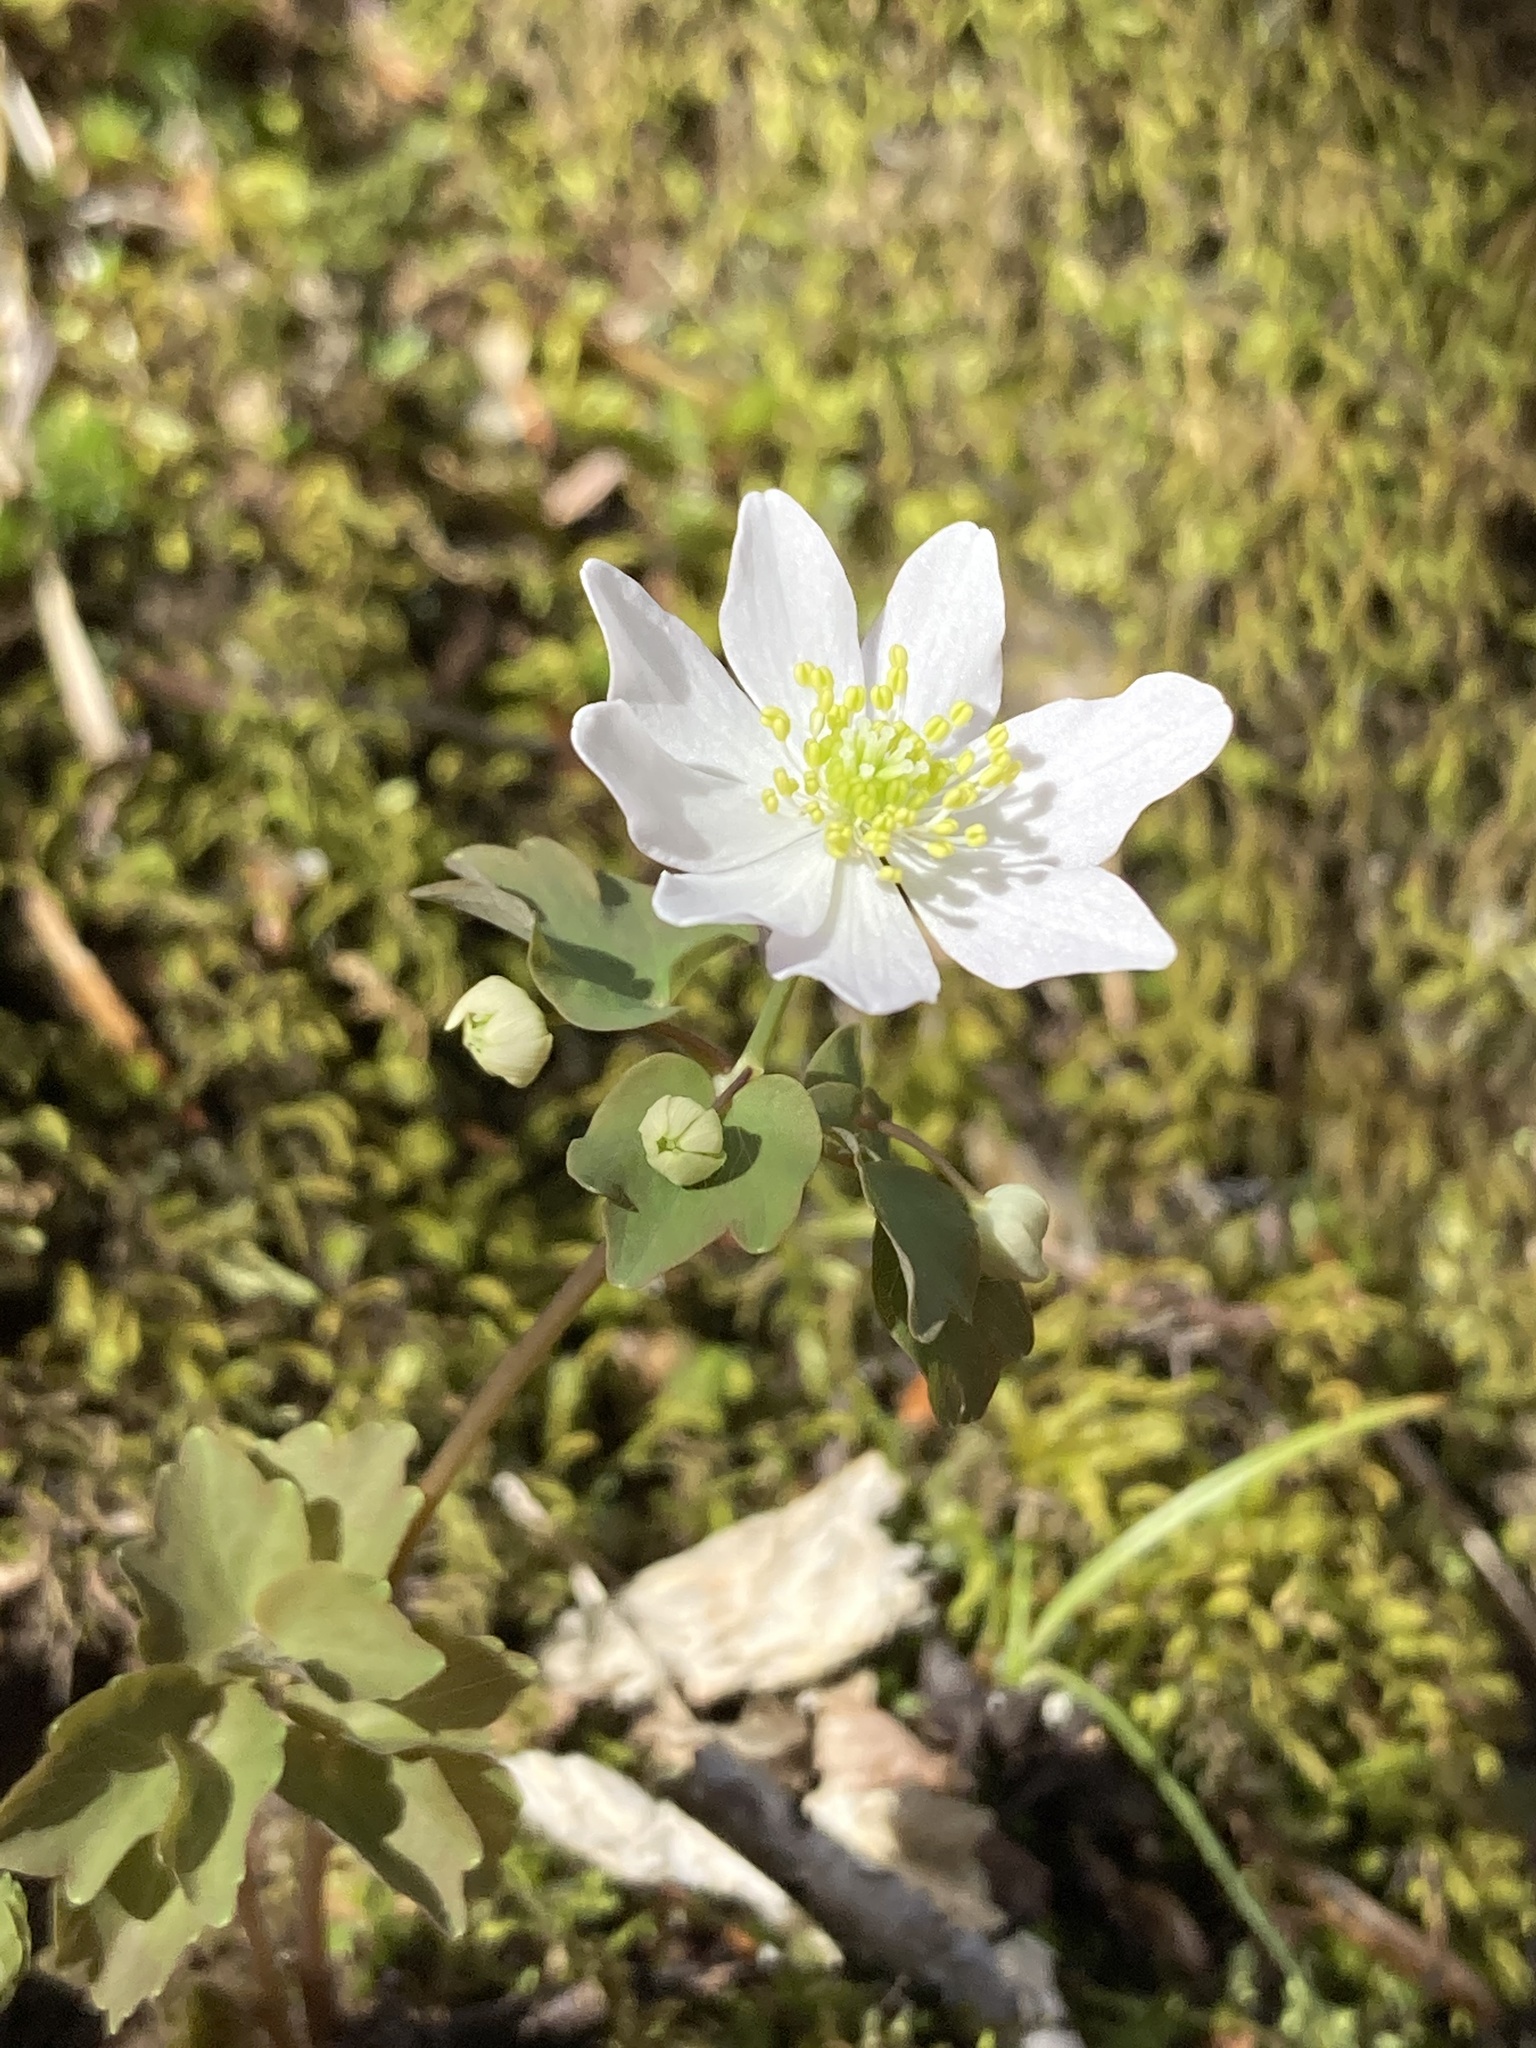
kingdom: Plantae
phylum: Tracheophyta
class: Magnoliopsida
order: Ranunculales
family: Ranunculaceae
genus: Thalictrum
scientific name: Thalictrum thalictroides
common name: Rue-anemone
